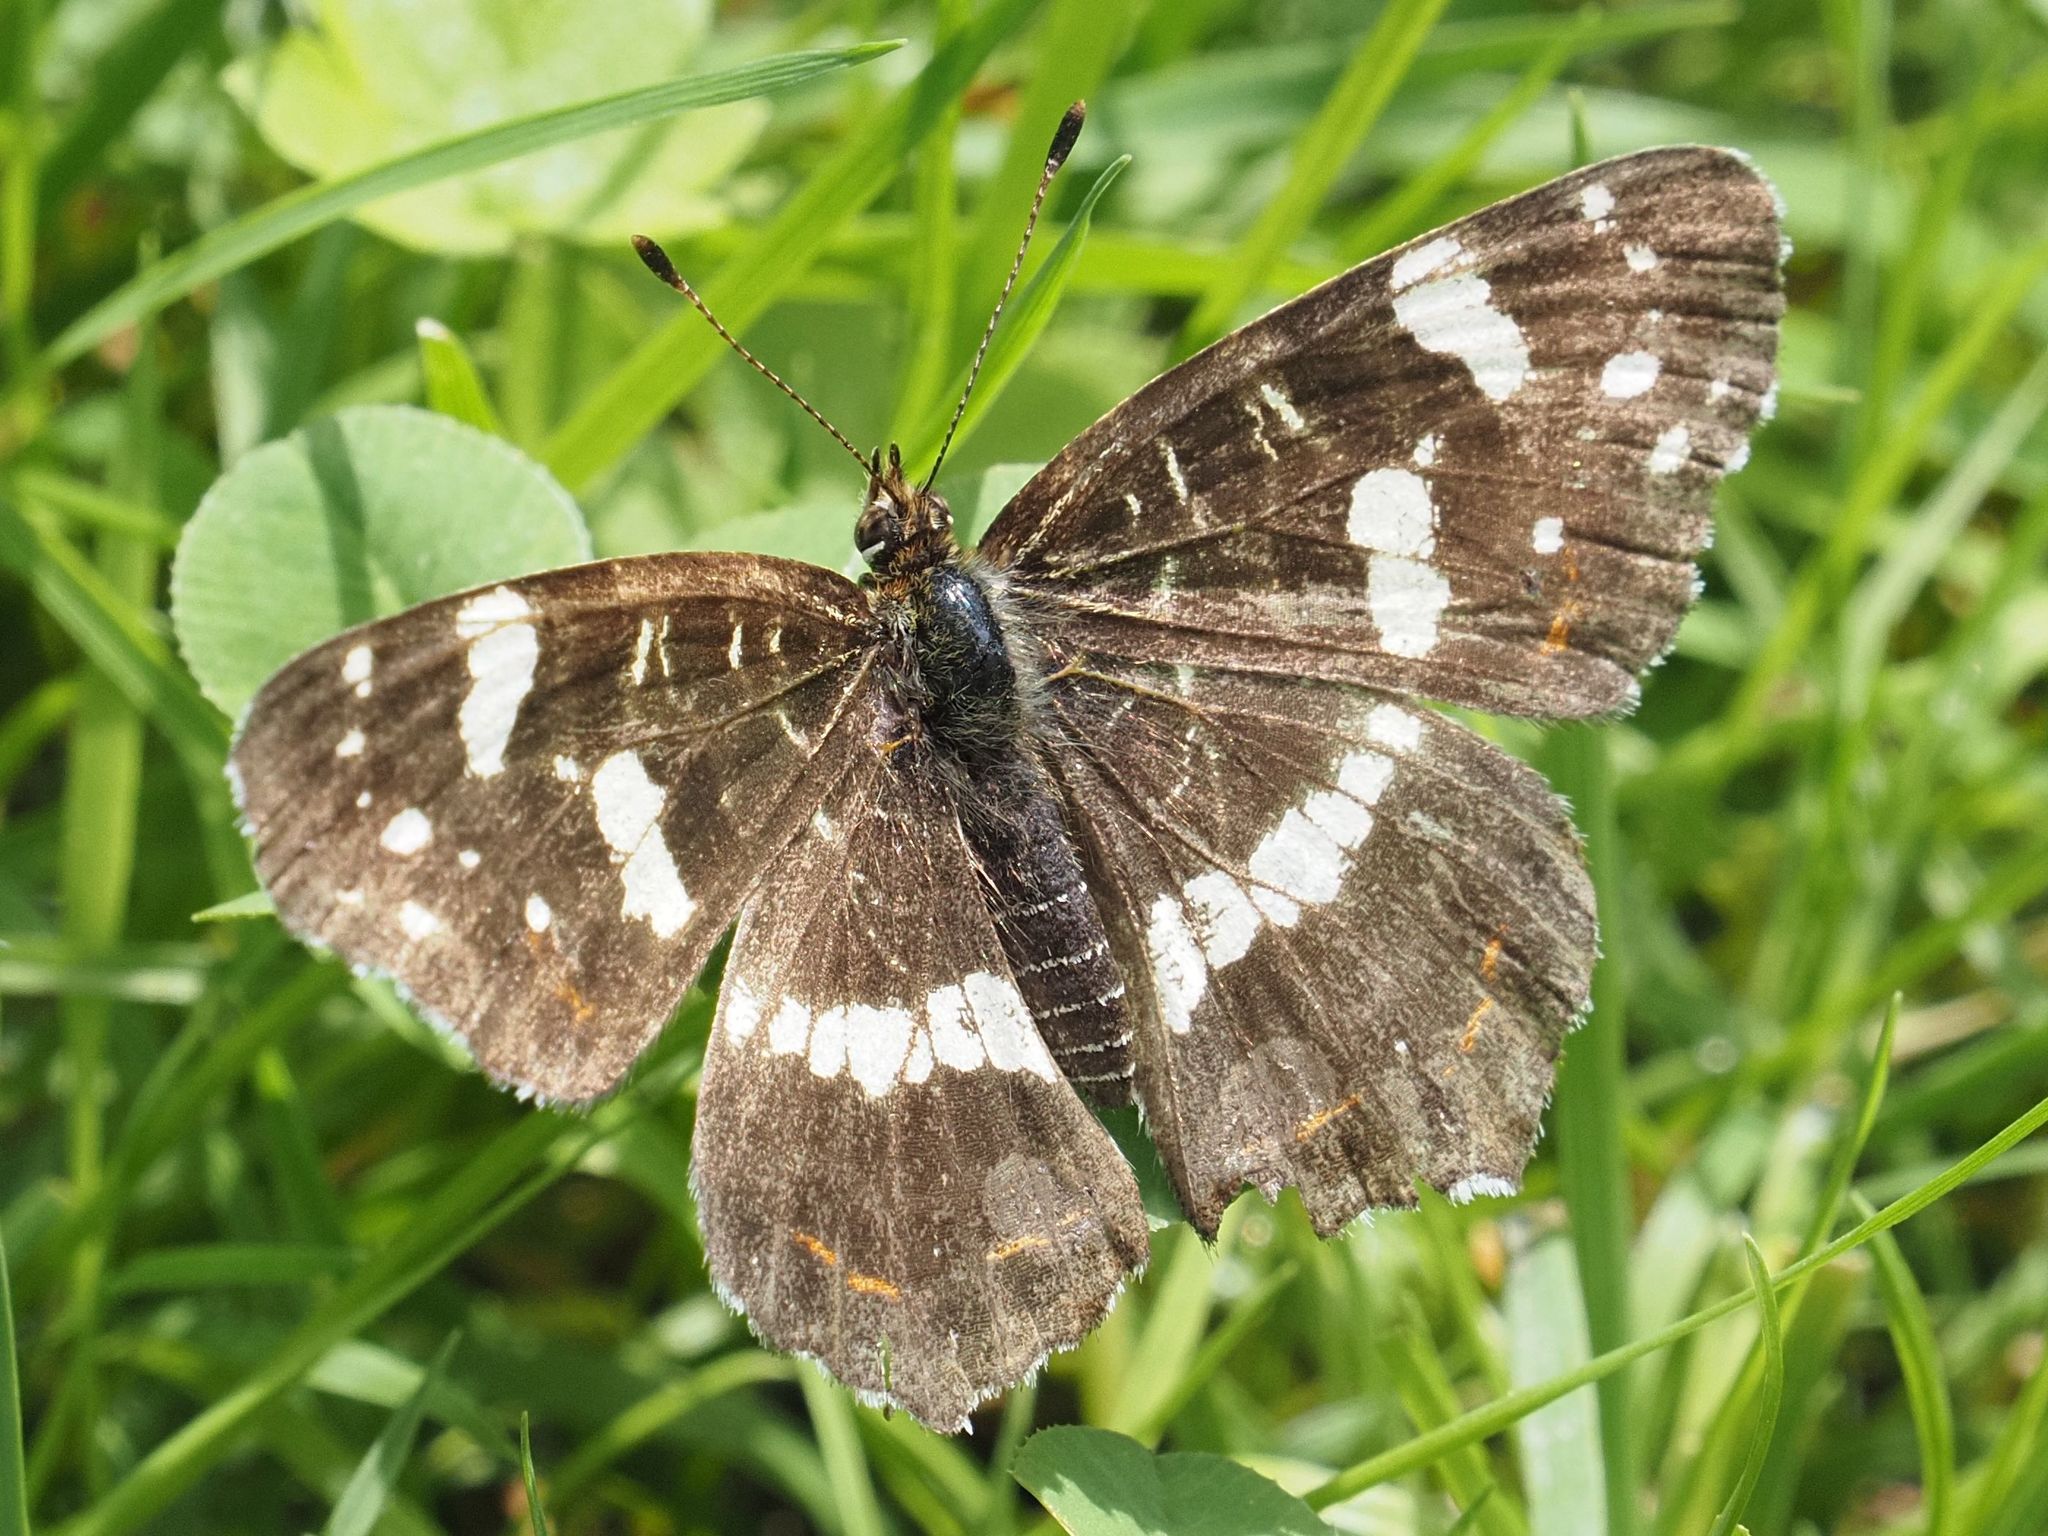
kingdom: Animalia
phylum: Arthropoda
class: Insecta
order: Lepidoptera
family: Nymphalidae
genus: Araschnia
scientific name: Araschnia levana
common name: Map butterfly
